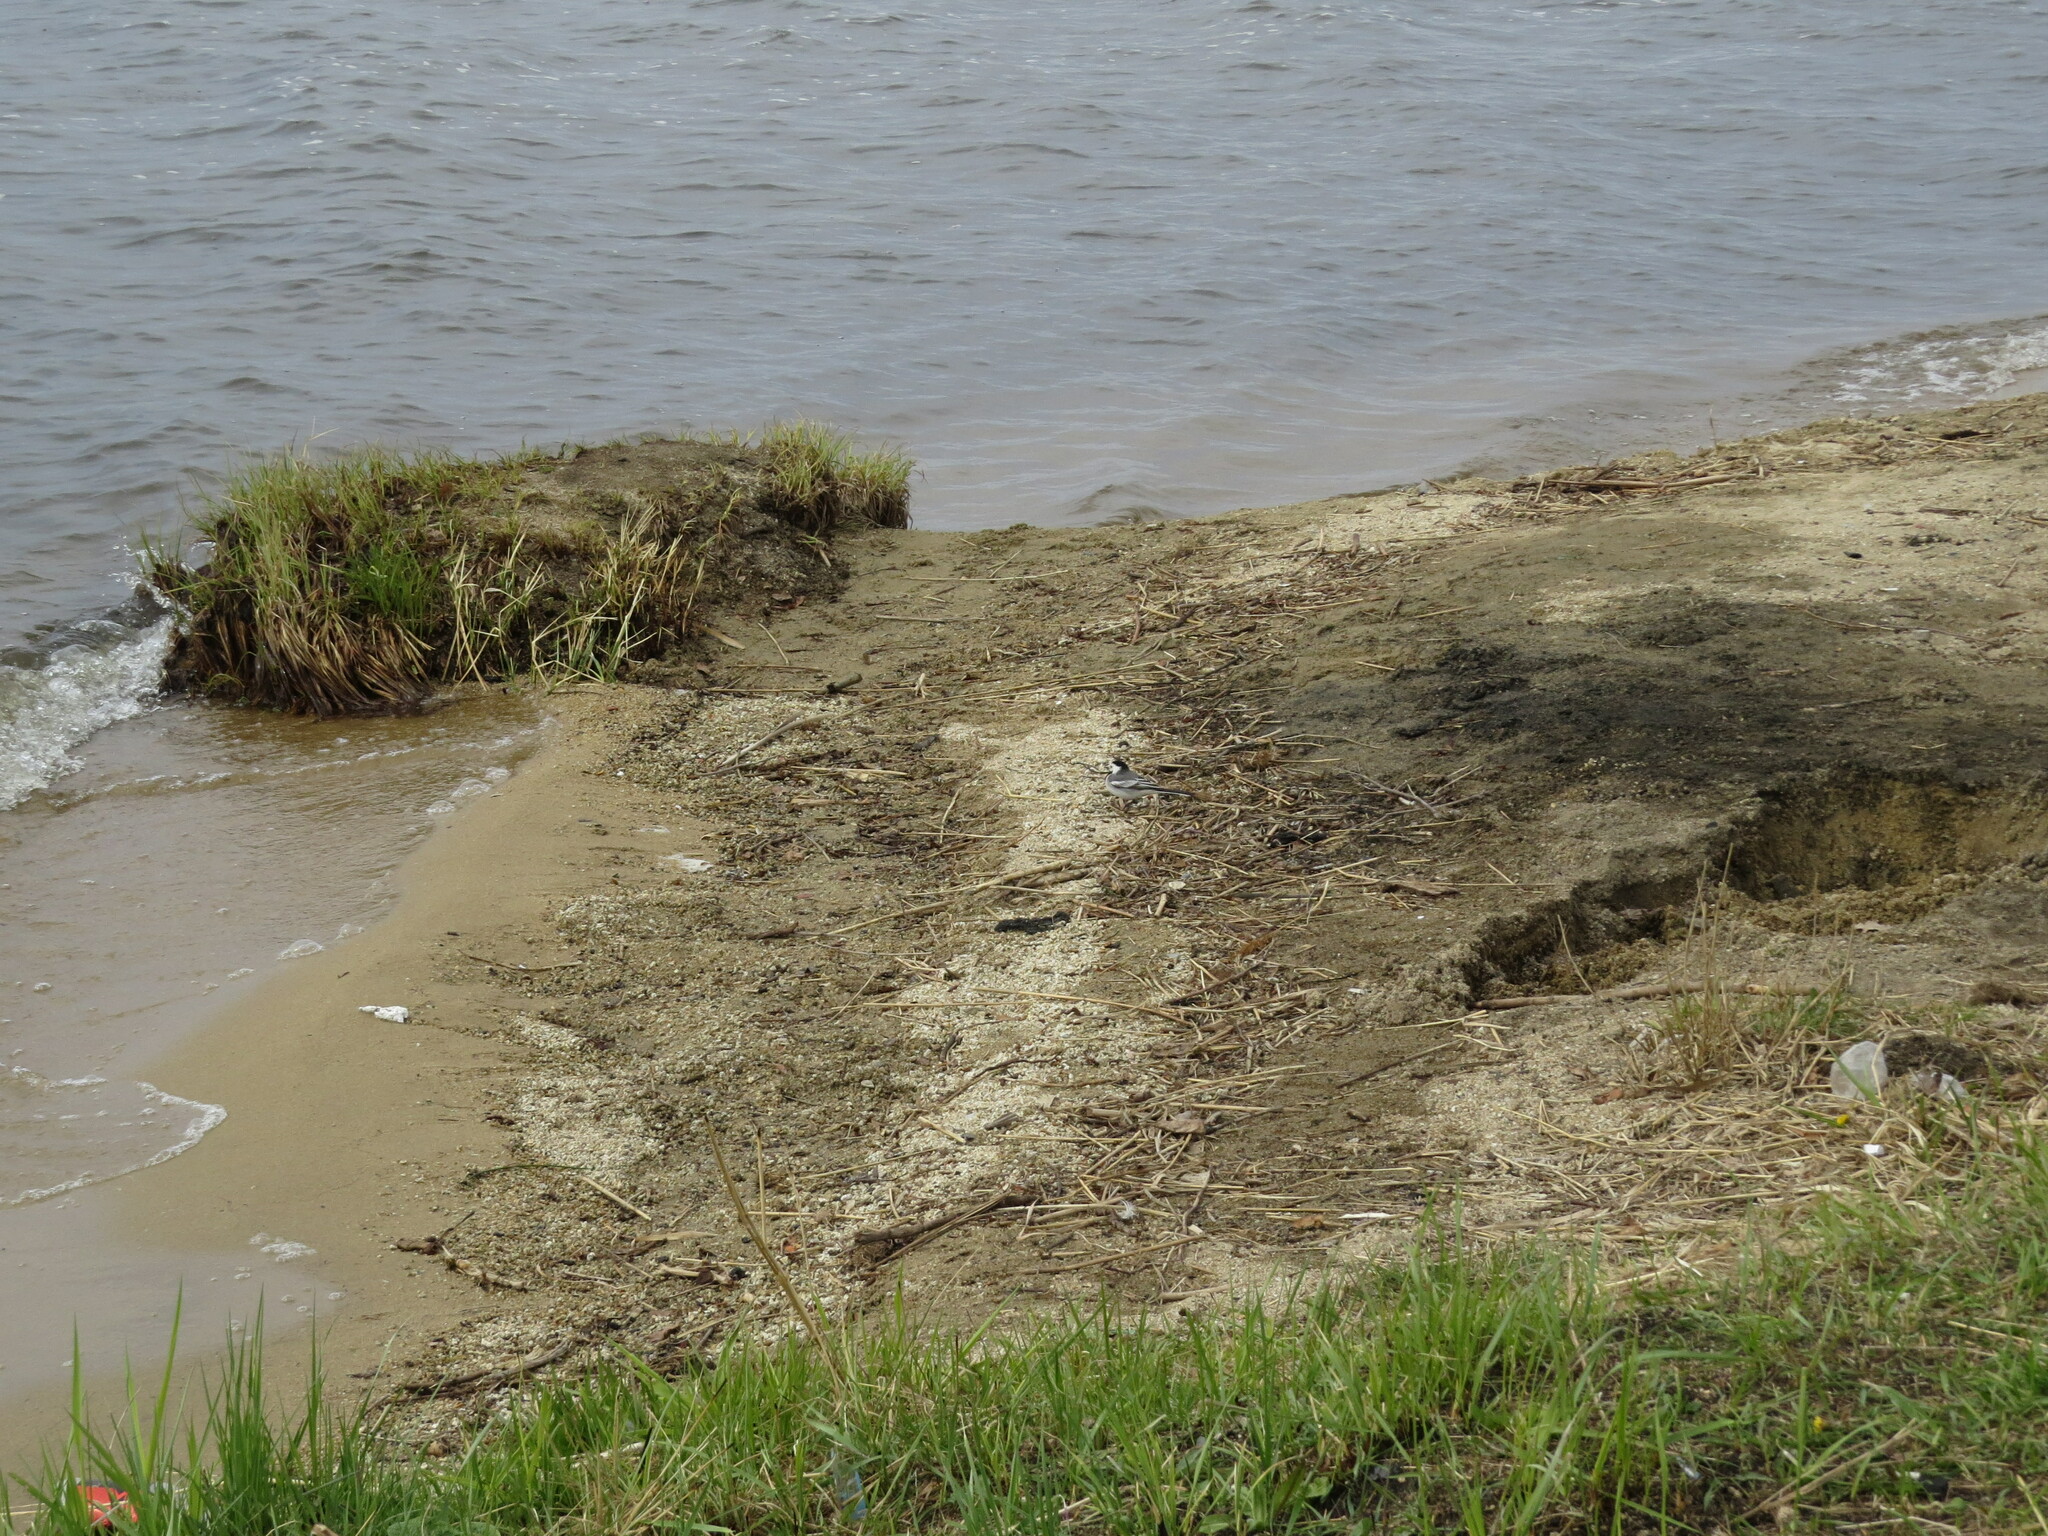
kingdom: Animalia
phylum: Chordata
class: Aves
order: Passeriformes
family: Motacillidae
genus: Motacilla
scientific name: Motacilla alba
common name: White wagtail
